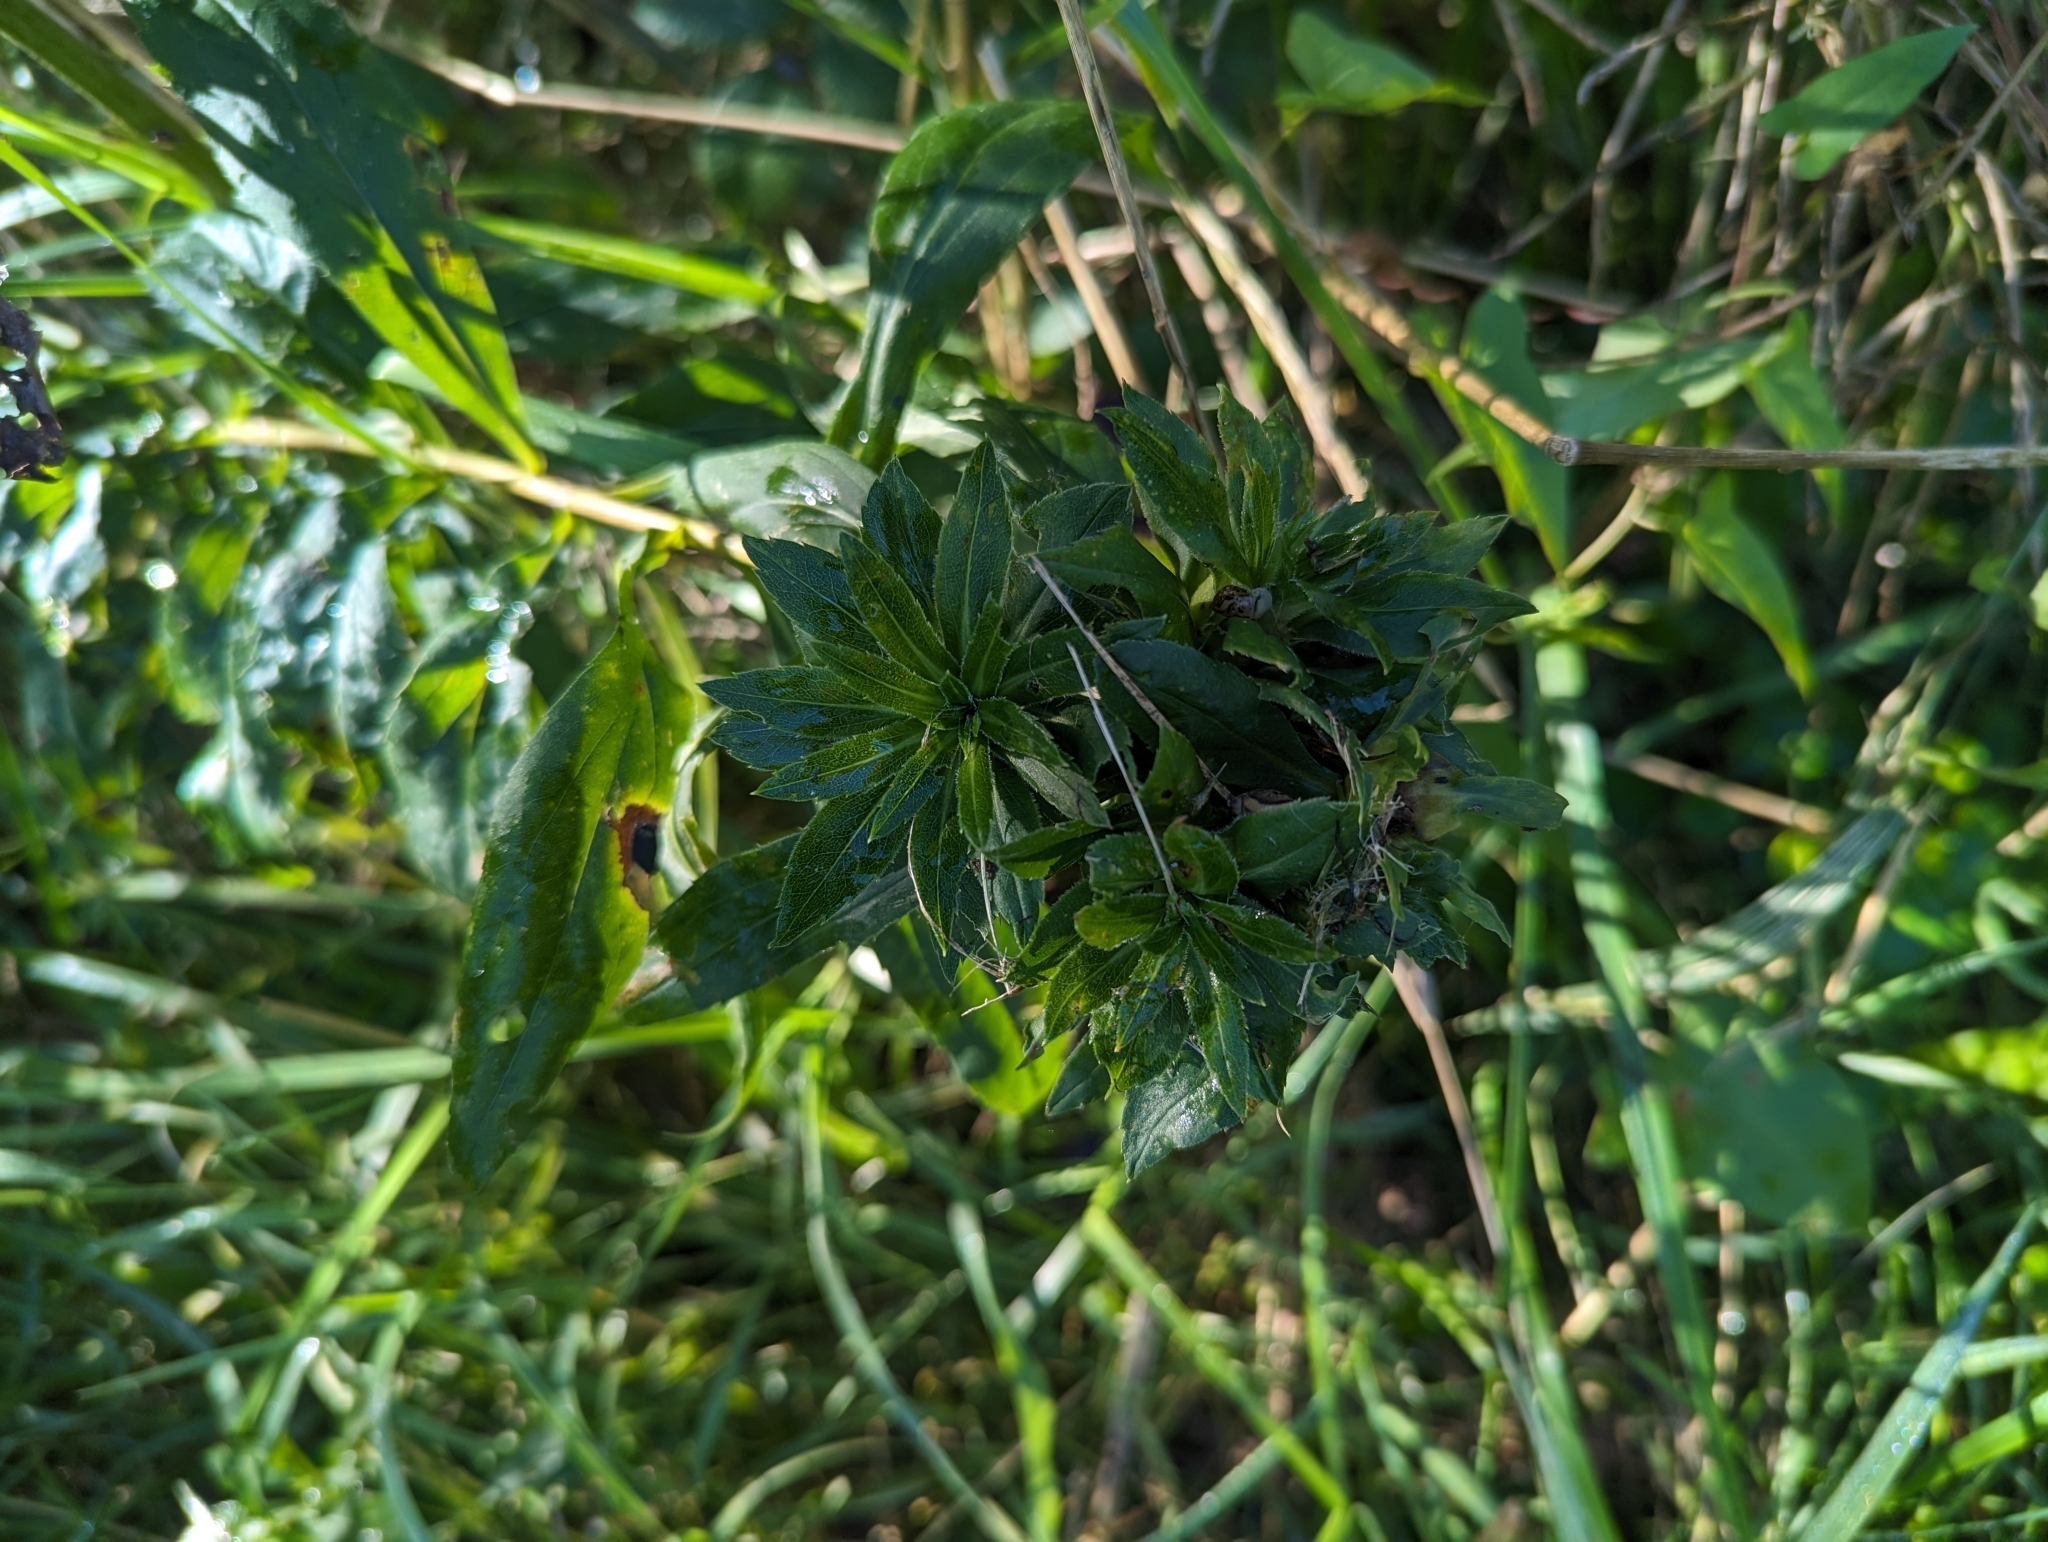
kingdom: Animalia
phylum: Arthropoda
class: Insecta
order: Diptera
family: Cecidomyiidae
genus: Rhopalomyia
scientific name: Rhopalomyia solidaginis
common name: Goldenrod bunch gall midge
